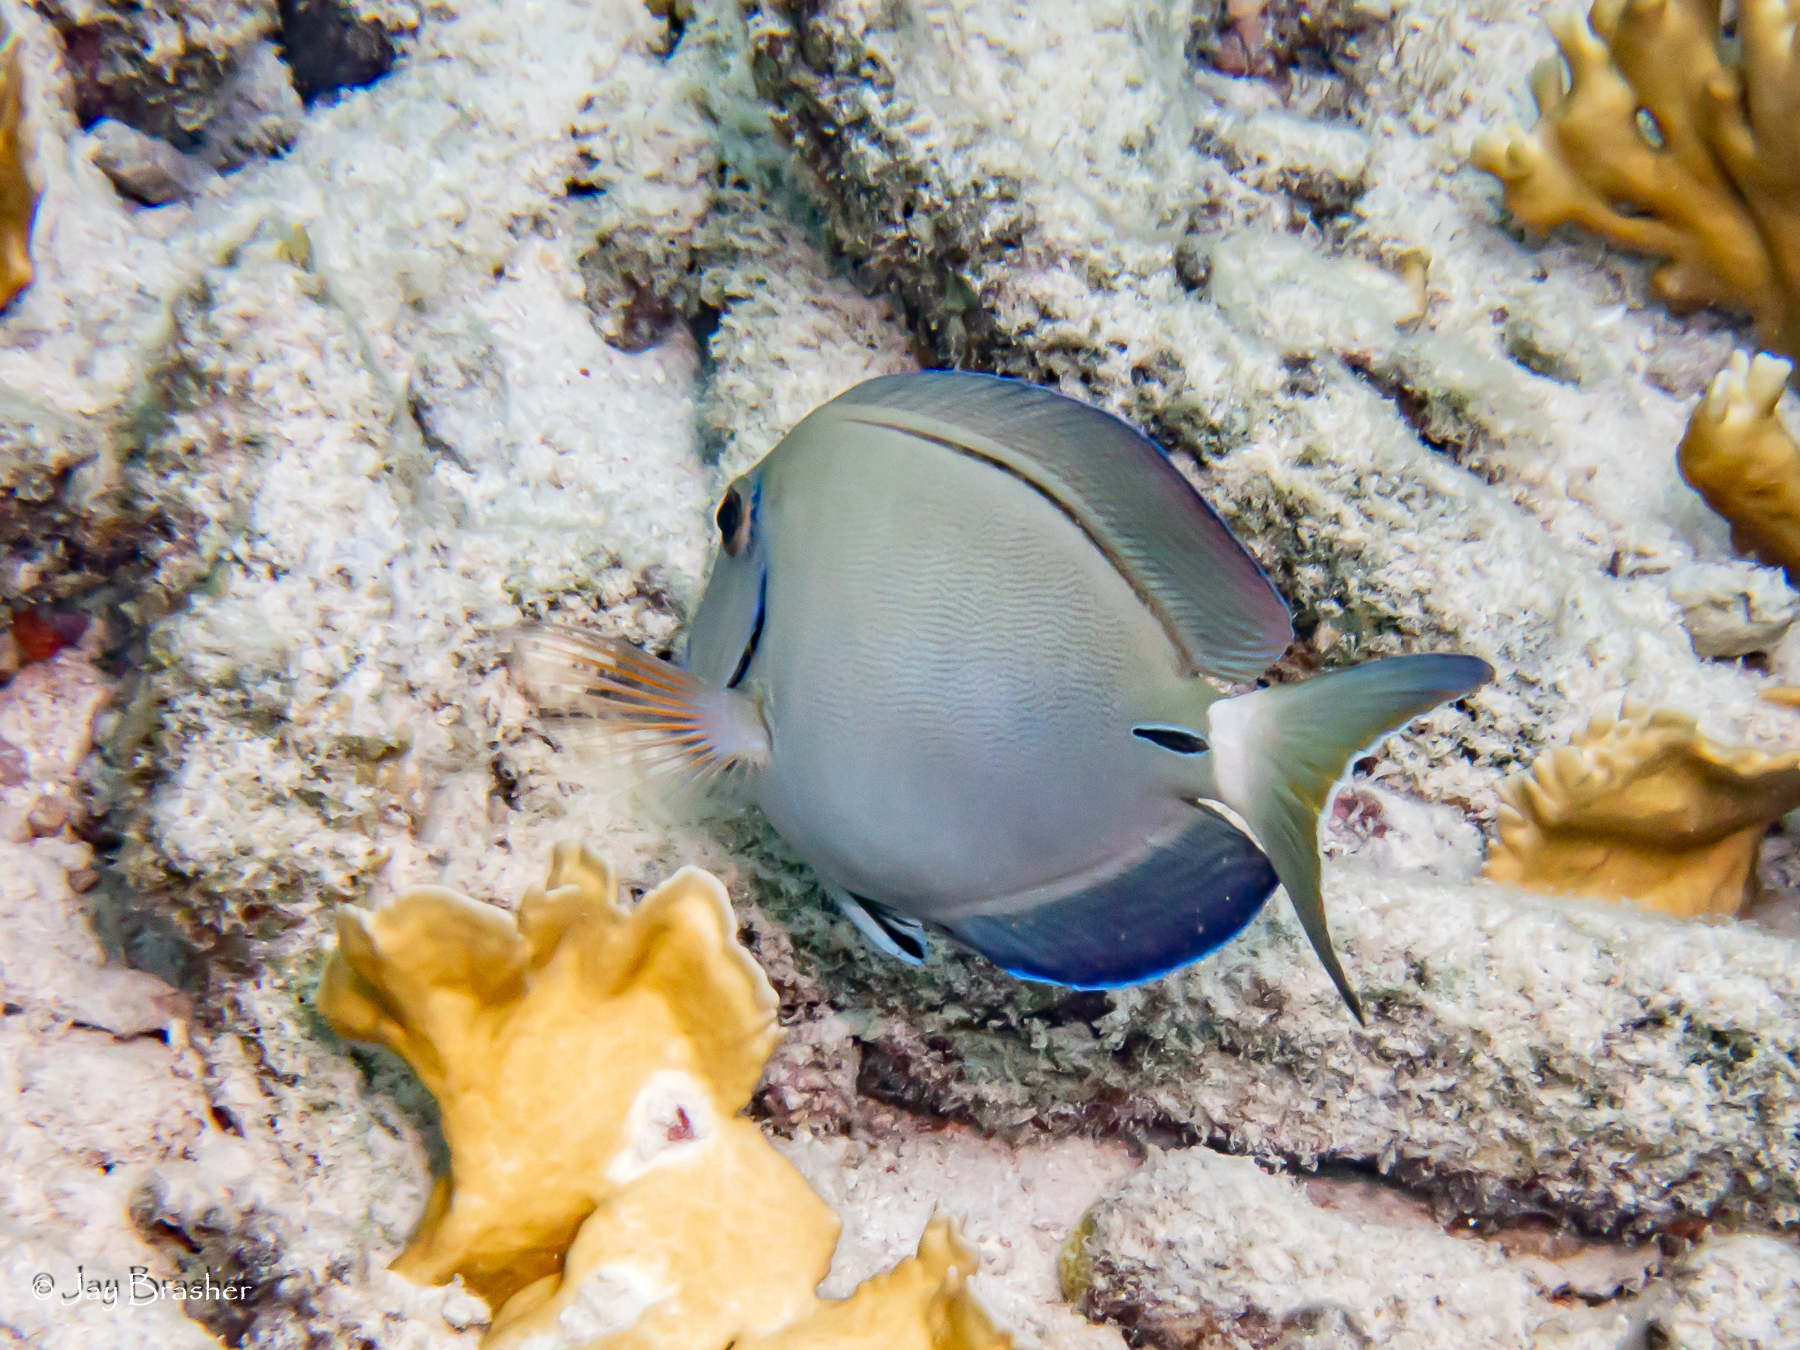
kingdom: Animalia
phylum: Chordata
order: Perciformes
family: Acanthuridae
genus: Acanthurus
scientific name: Acanthurus bahianus
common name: Ocean surgeon
